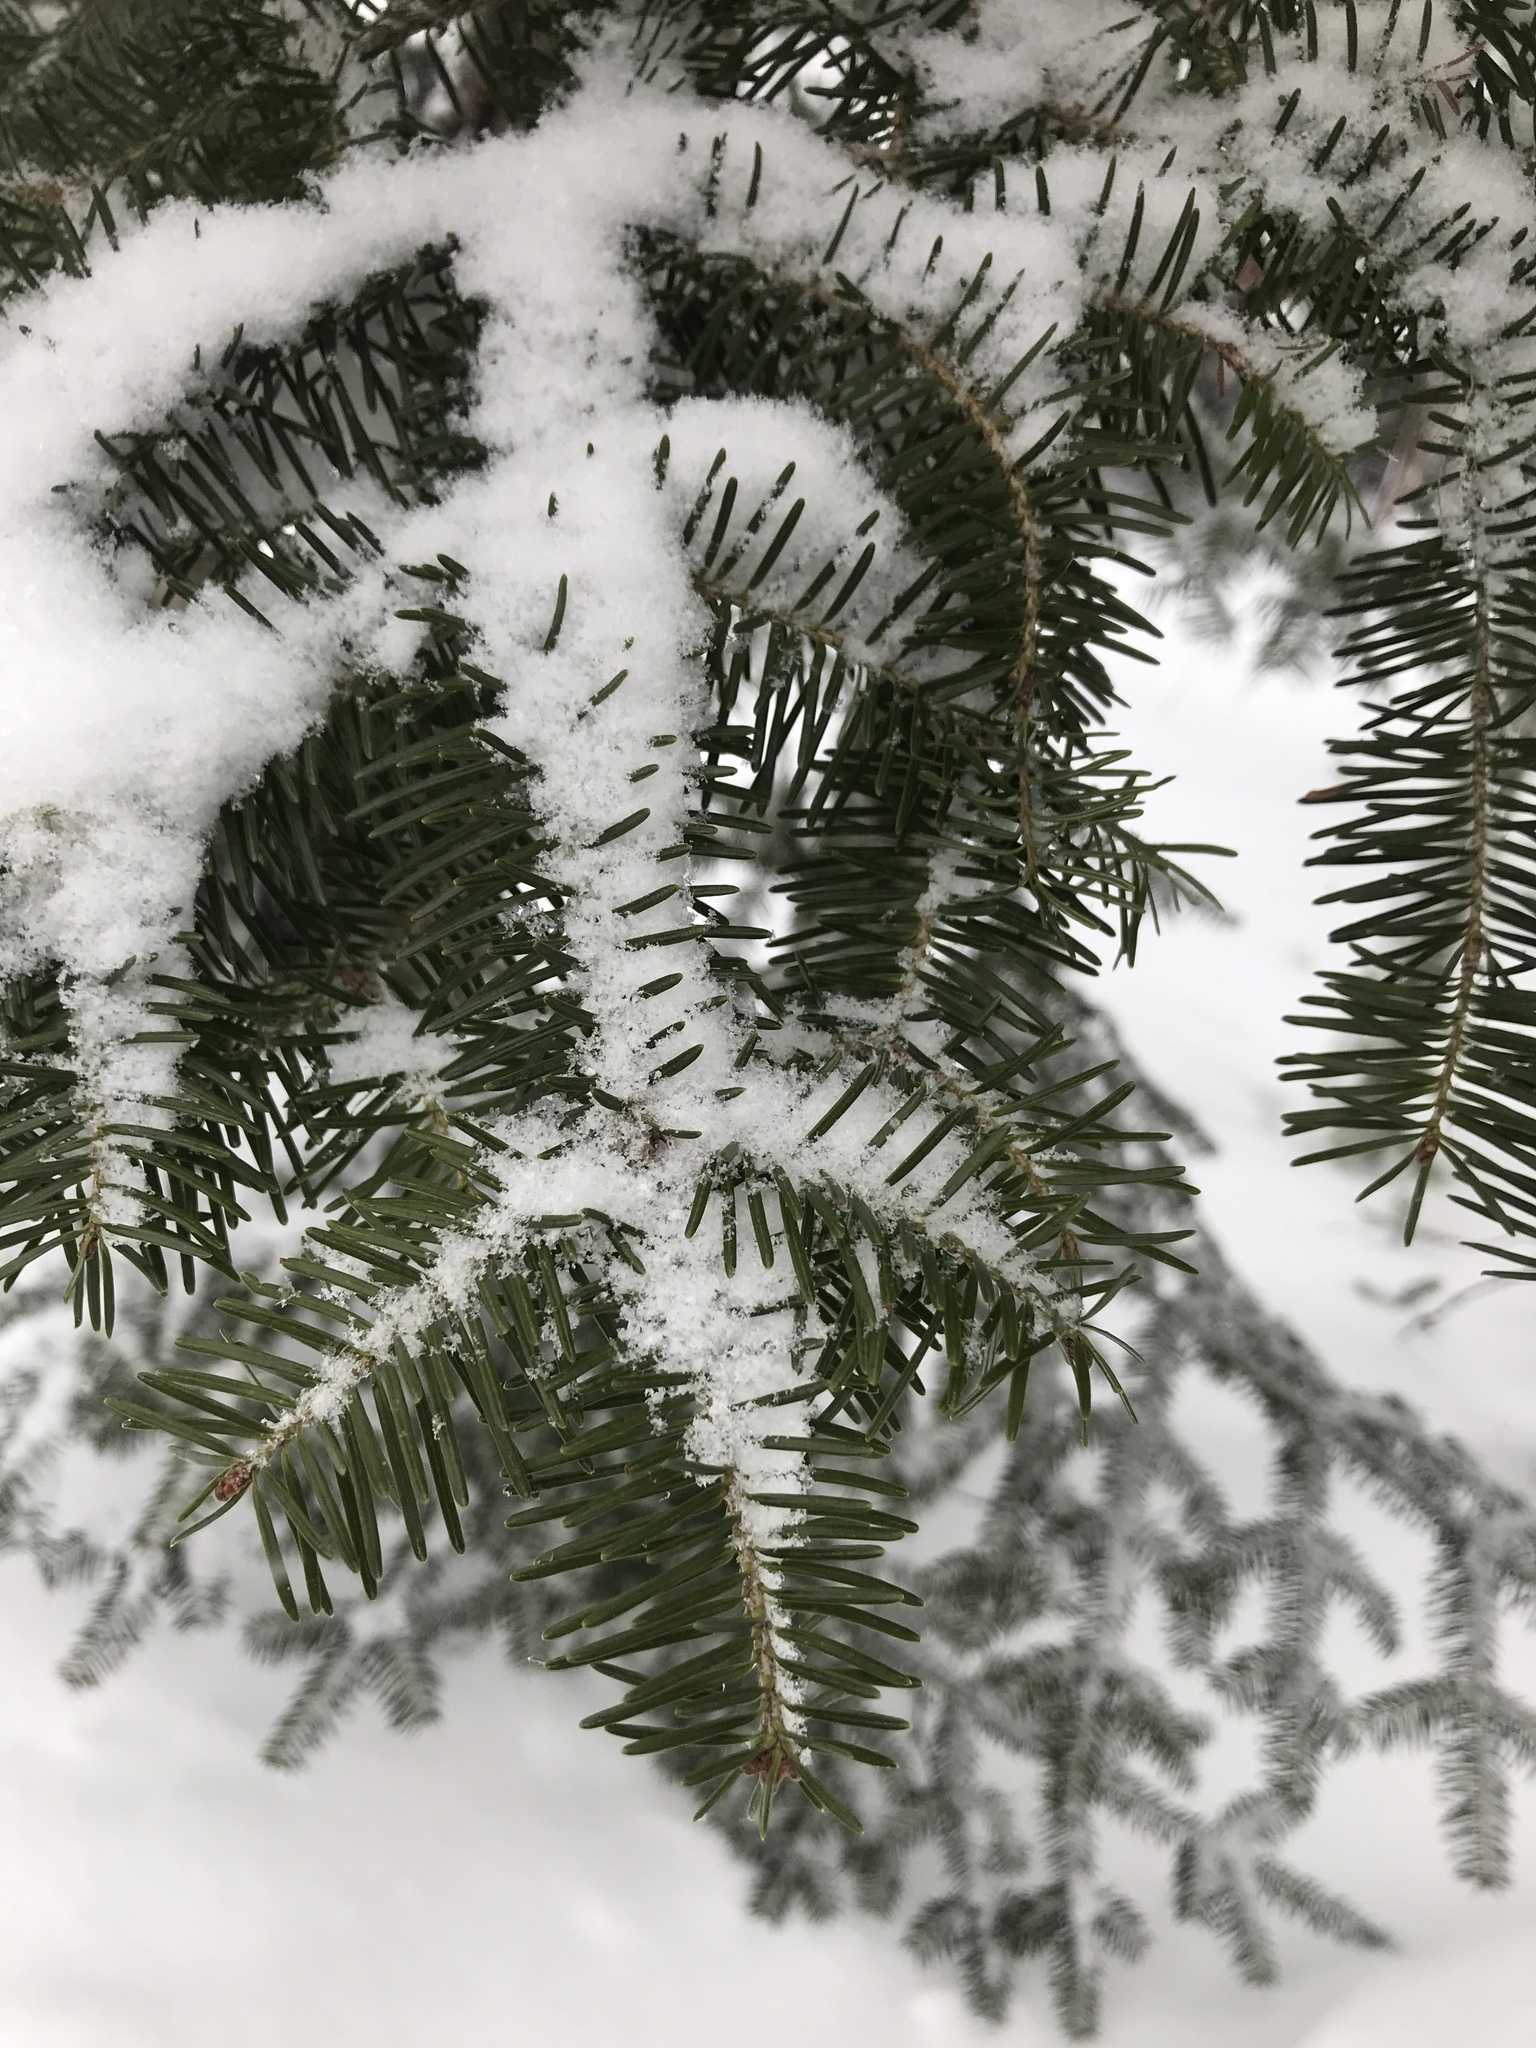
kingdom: Plantae
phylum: Tracheophyta
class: Pinopsida
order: Pinales
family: Pinaceae
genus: Abies
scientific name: Abies balsamea
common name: Balsam fir
